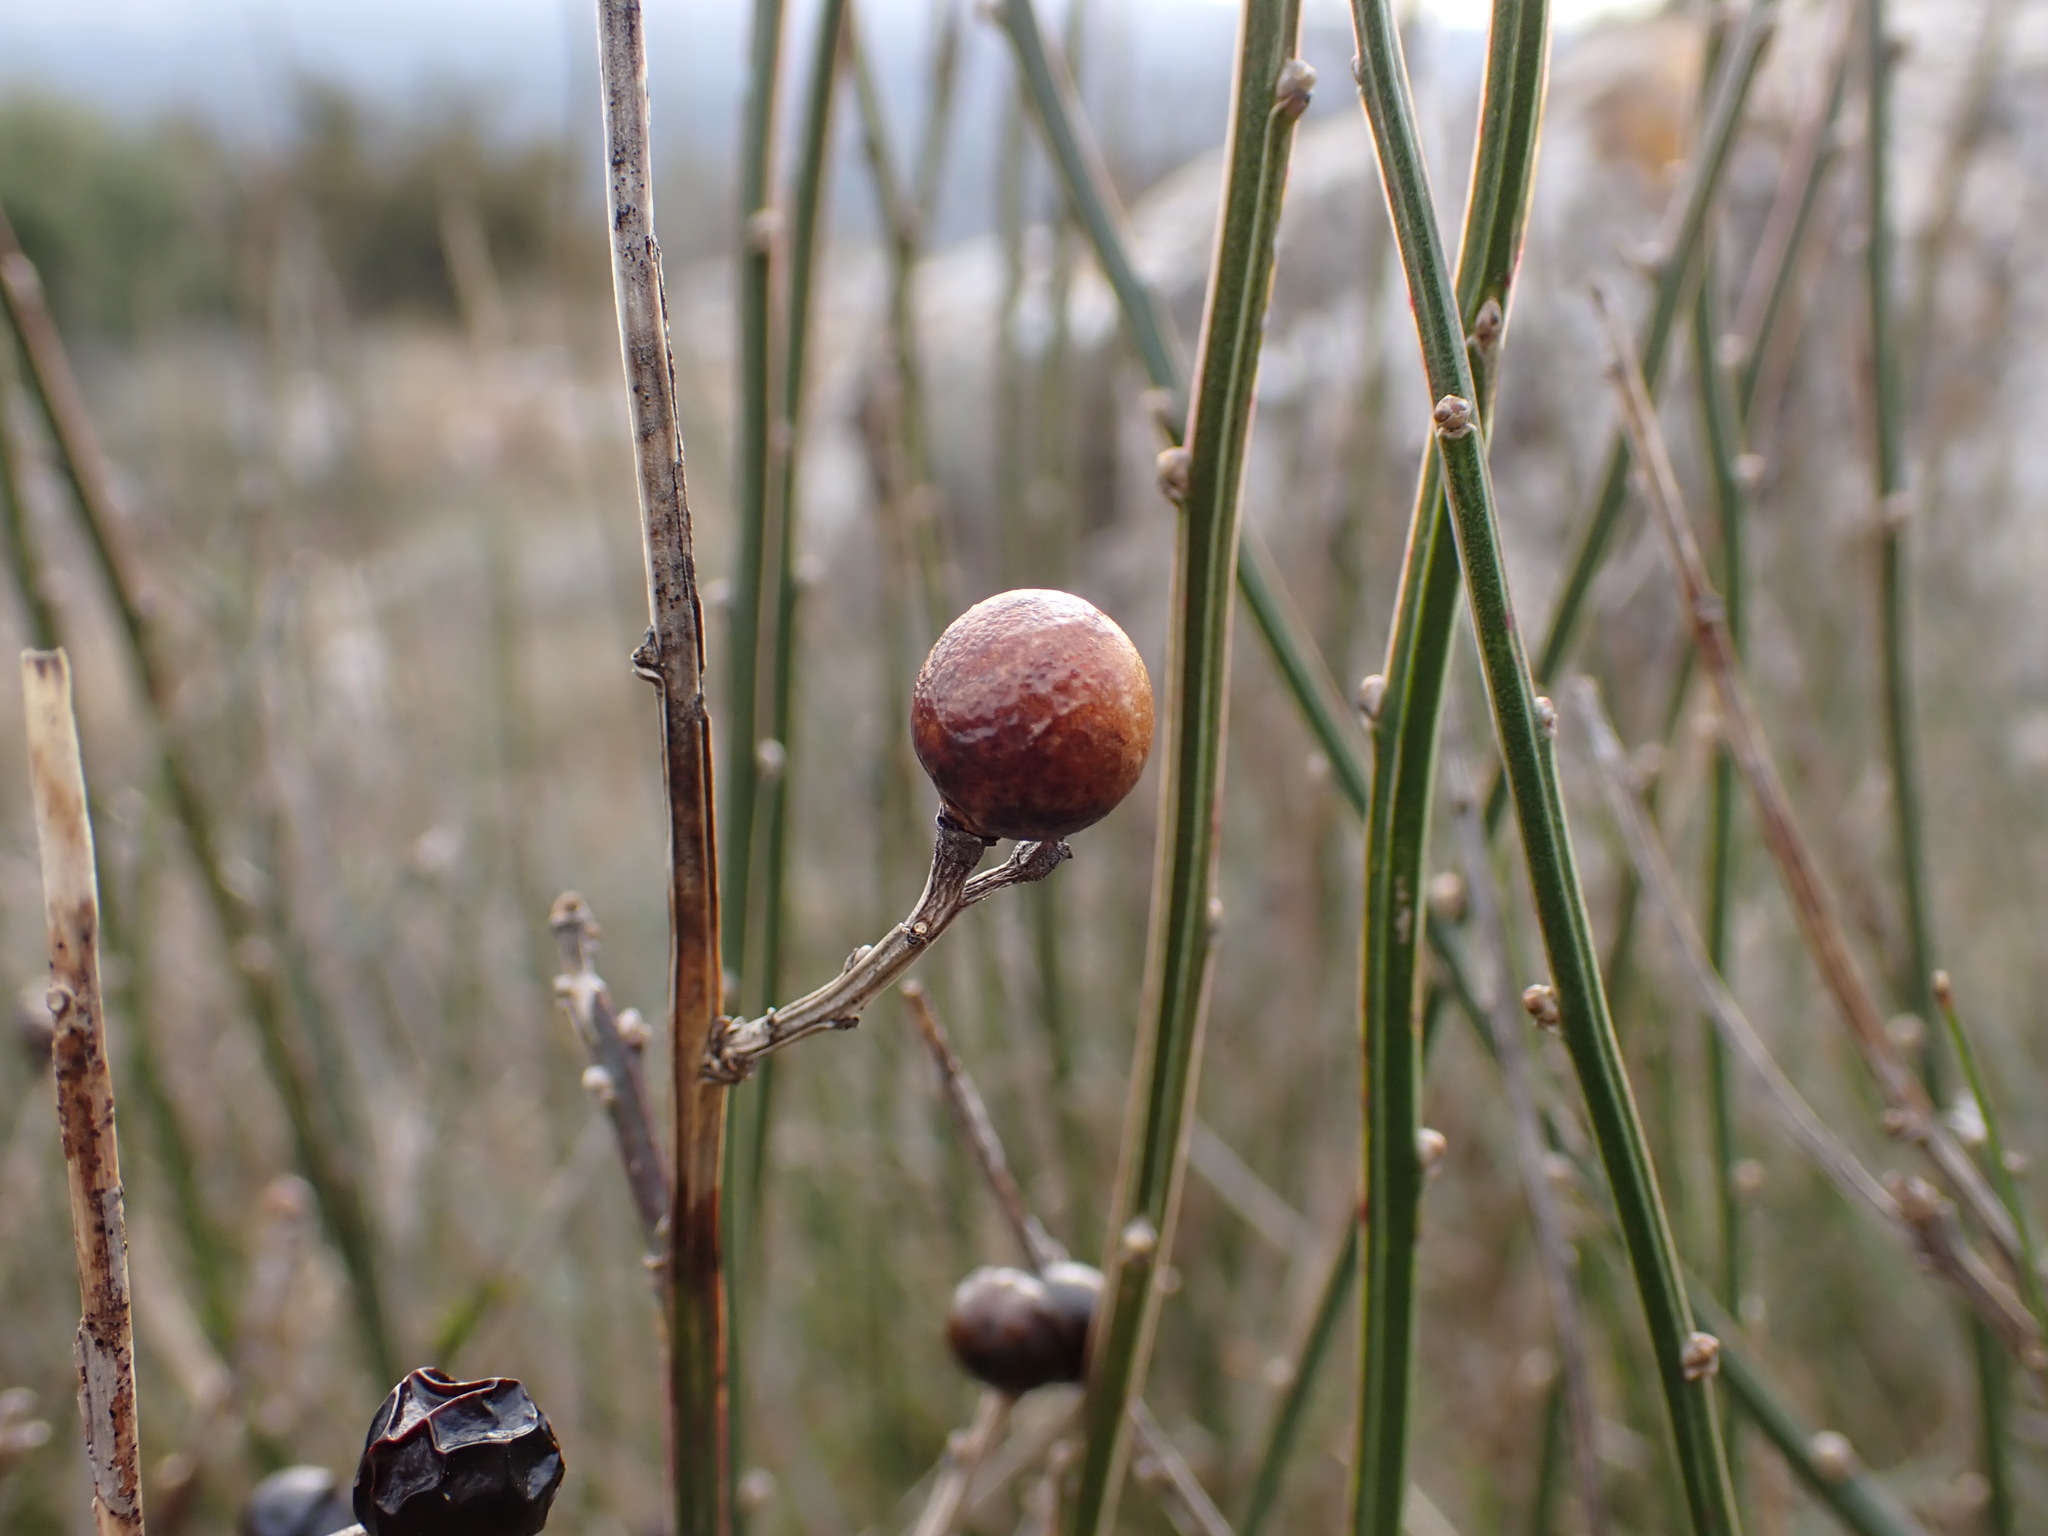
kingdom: Plantae
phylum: Tracheophyta
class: Magnoliopsida
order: Lamiales
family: Oleaceae
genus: Chrysojasminum
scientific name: Chrysojasminum fruticans
